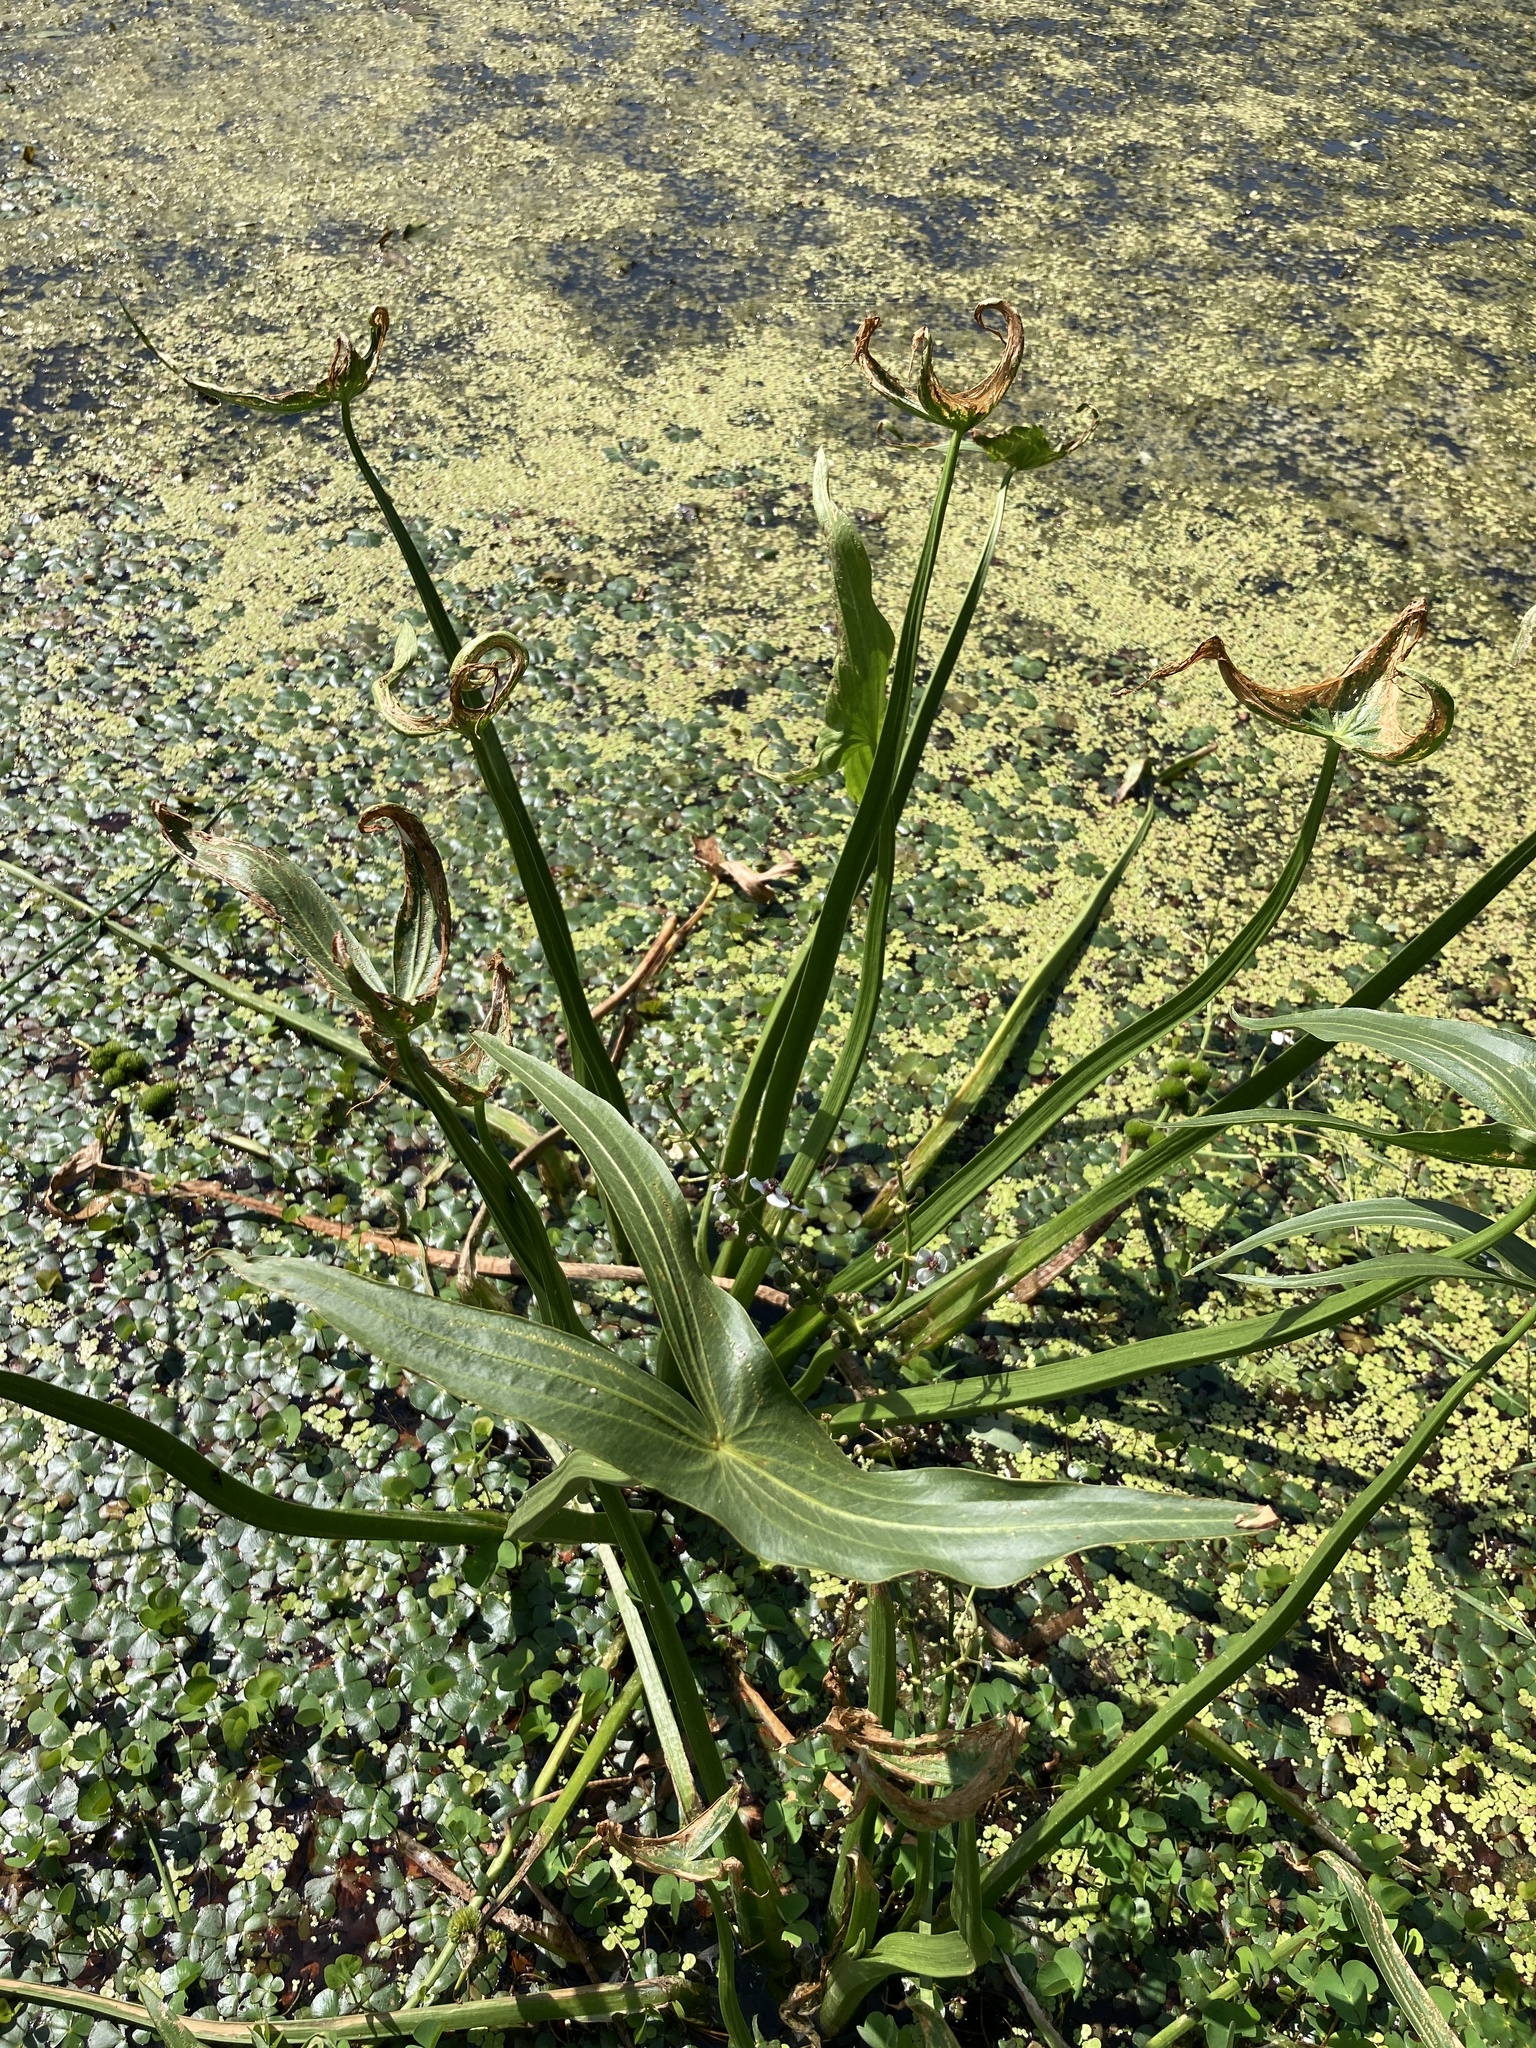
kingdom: Plantae
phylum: Tracheophyta
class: Liliopsida
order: Alismatales
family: Alismataceae
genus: Sagittaria
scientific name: Sagittaria sagittifolia
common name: Arrowhead
